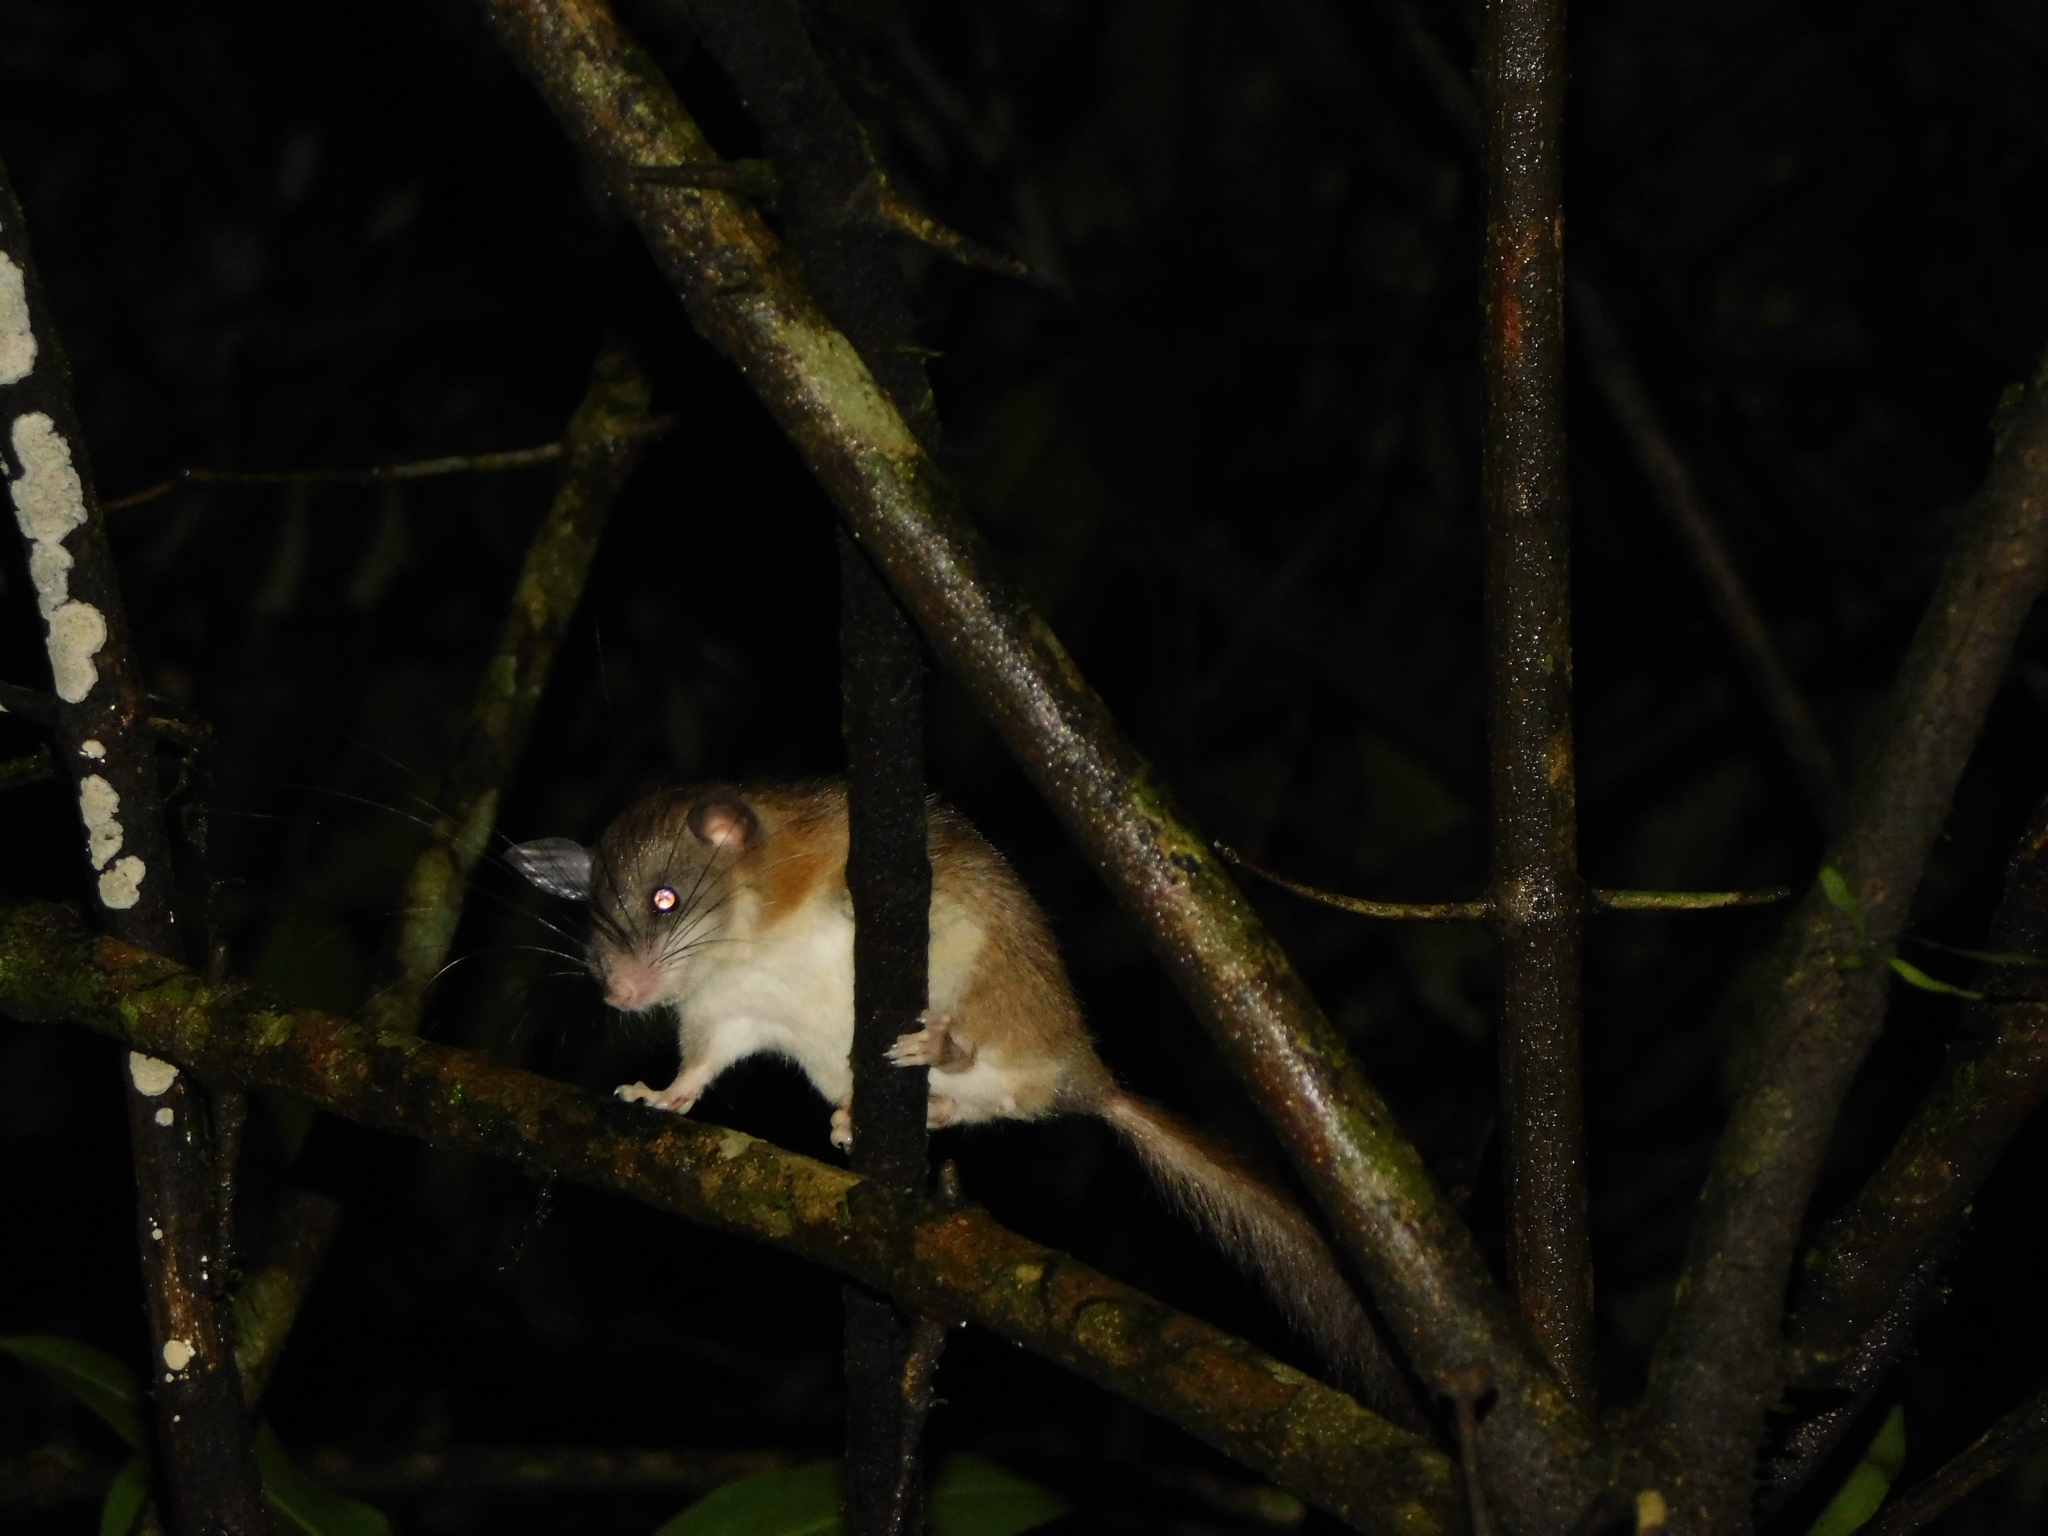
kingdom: Animalia
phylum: Chordata
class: Mammalia
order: Rodentia
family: Platacanthomyidae
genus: Platacanthomys
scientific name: Platacanthomys lasiurus
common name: Malabar spiny dormouse
